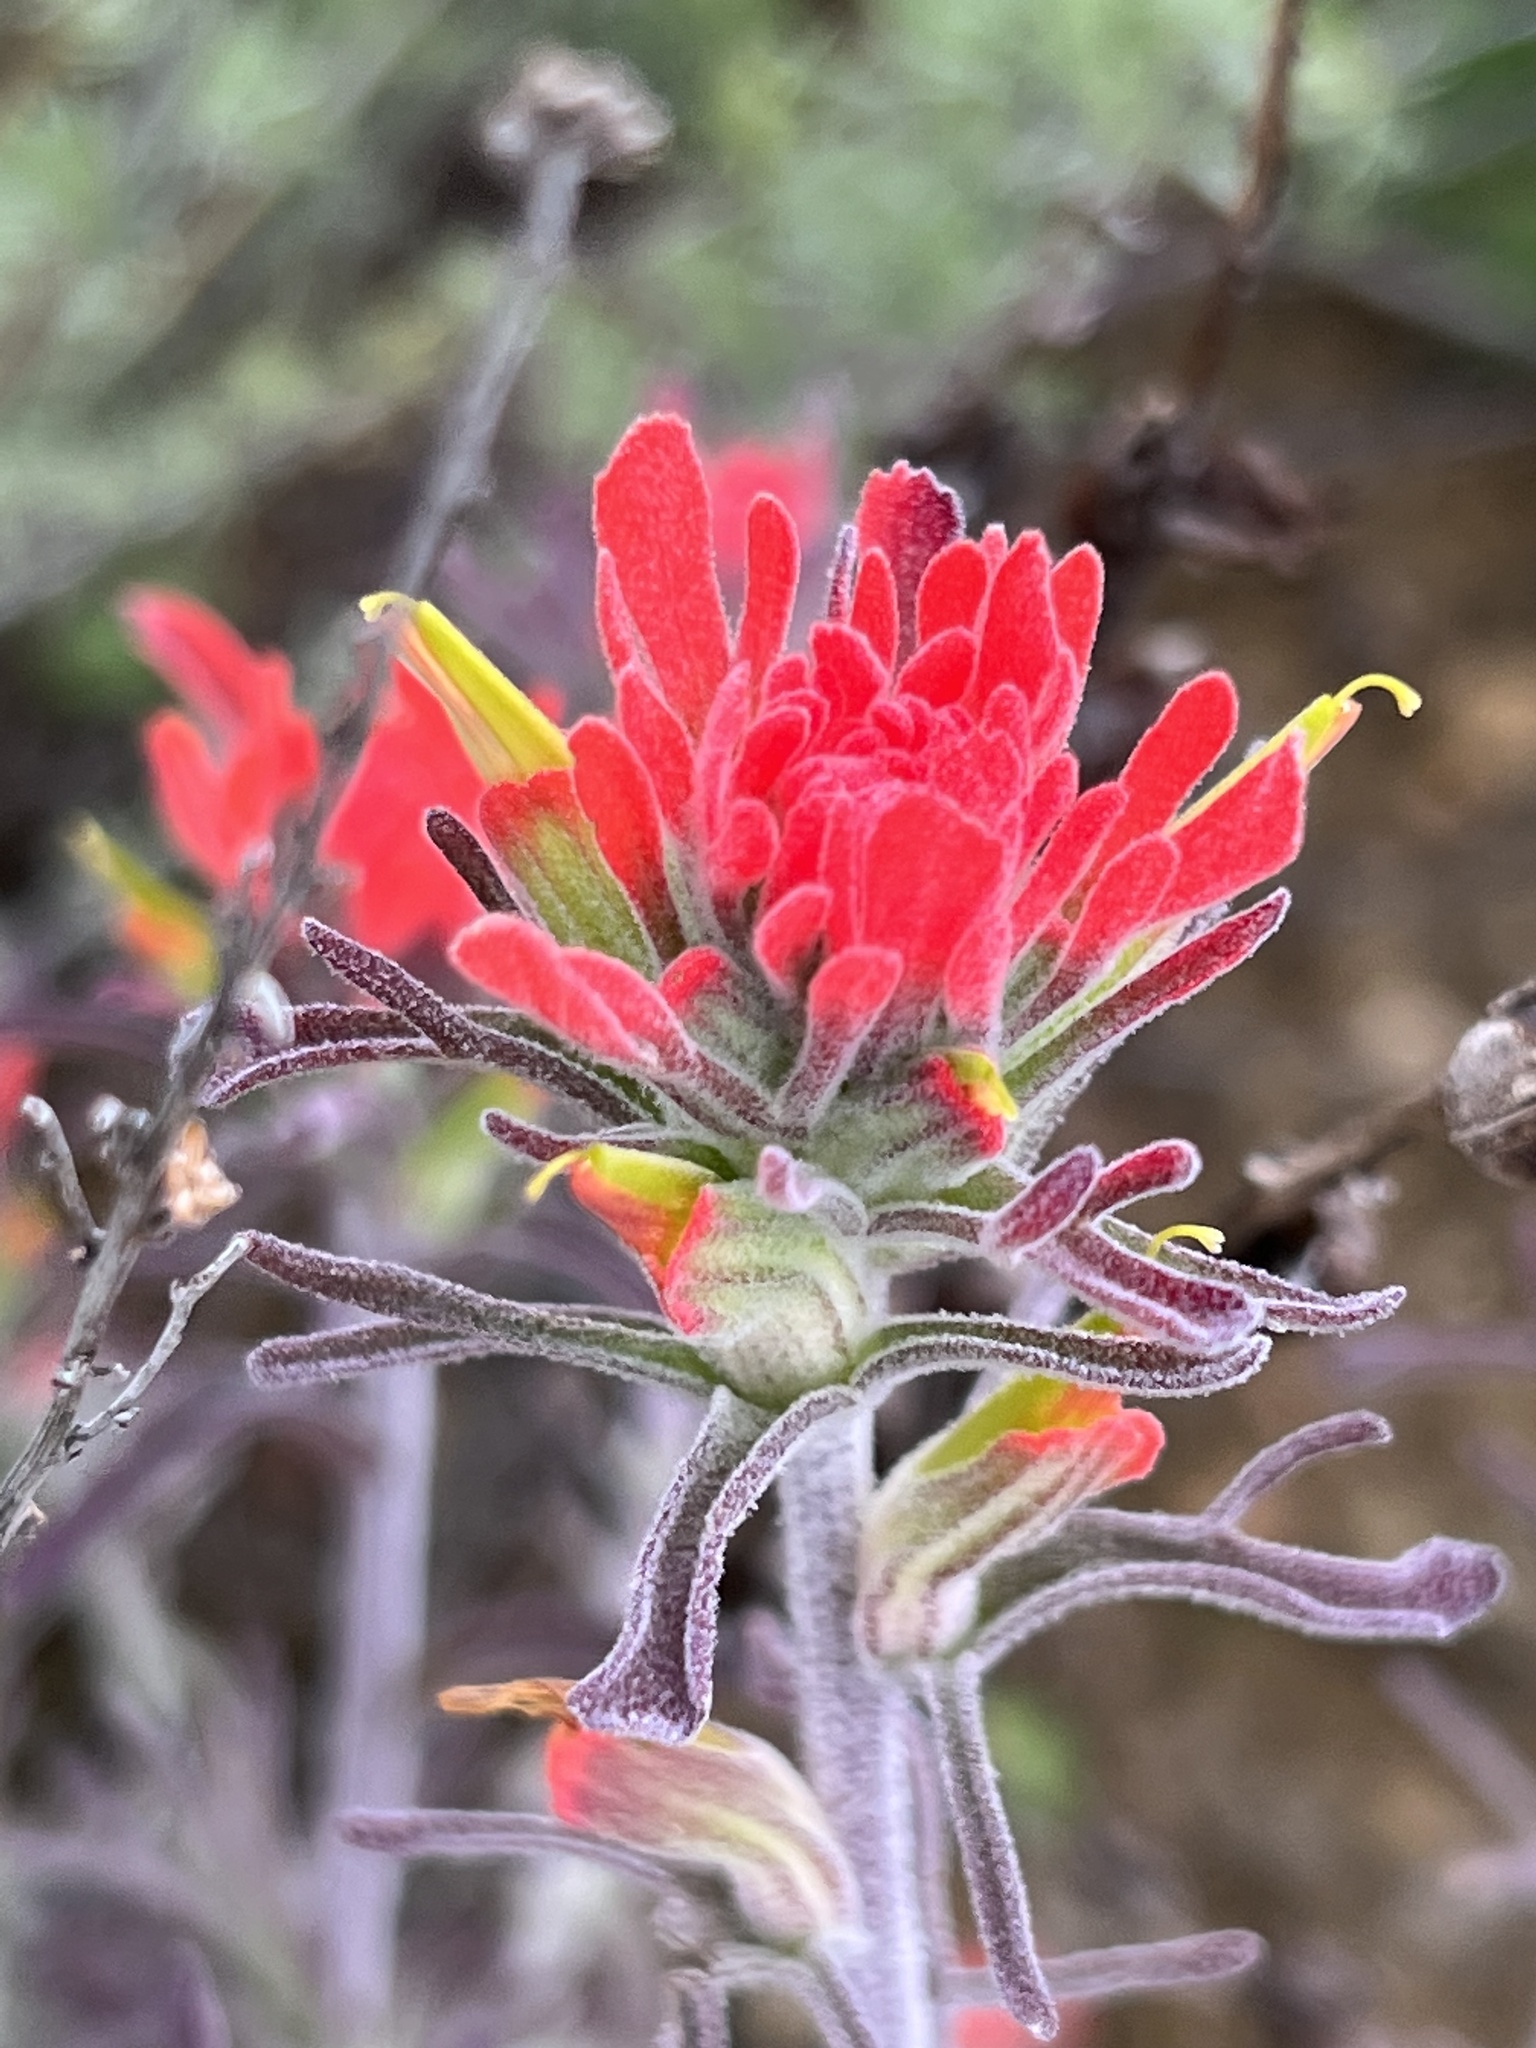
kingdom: Plantae
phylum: Tracheophyta
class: Magnoliopsida
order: Lamiales
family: Orobanchaceae
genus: Castilleja
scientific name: Castilleja foliolosa
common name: Woolly indian paintbrush
